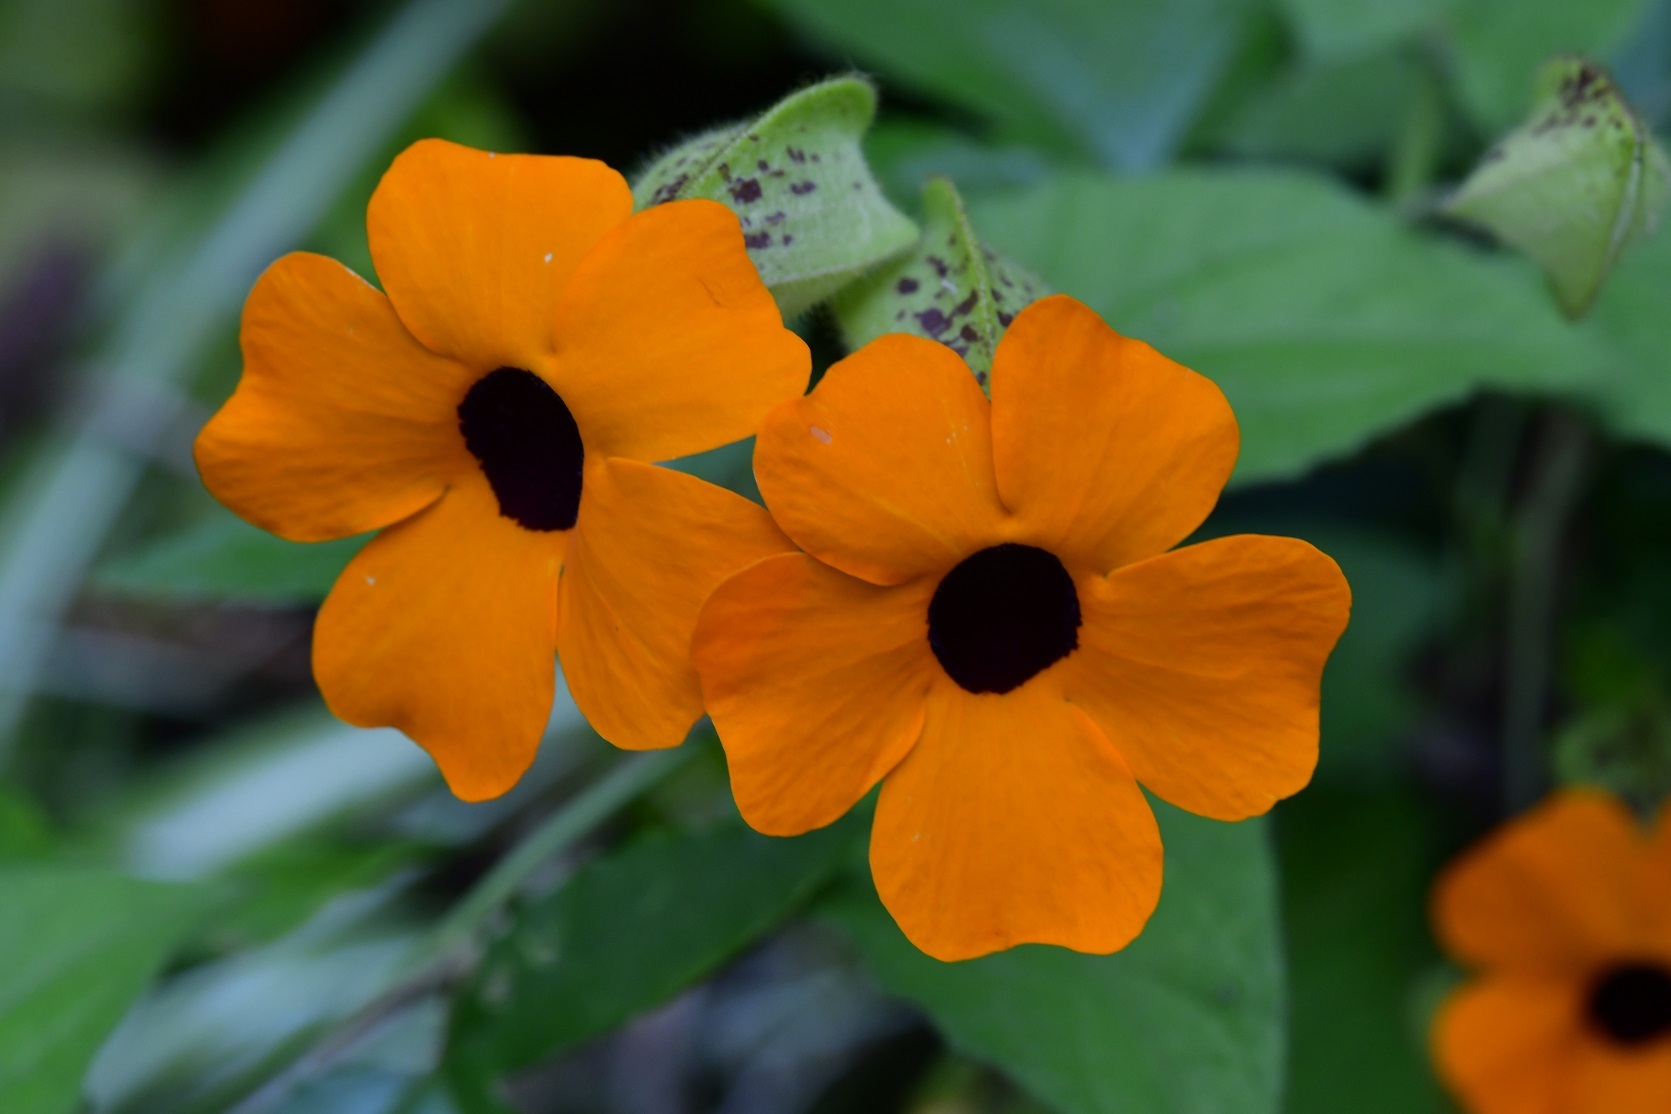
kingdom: Plantae
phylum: Tracheophyta
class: Magnoliopsida
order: Lamiales
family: Acanthaceae
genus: Thunbergia
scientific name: Thunbergia alata
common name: Blackeyed susan vine
